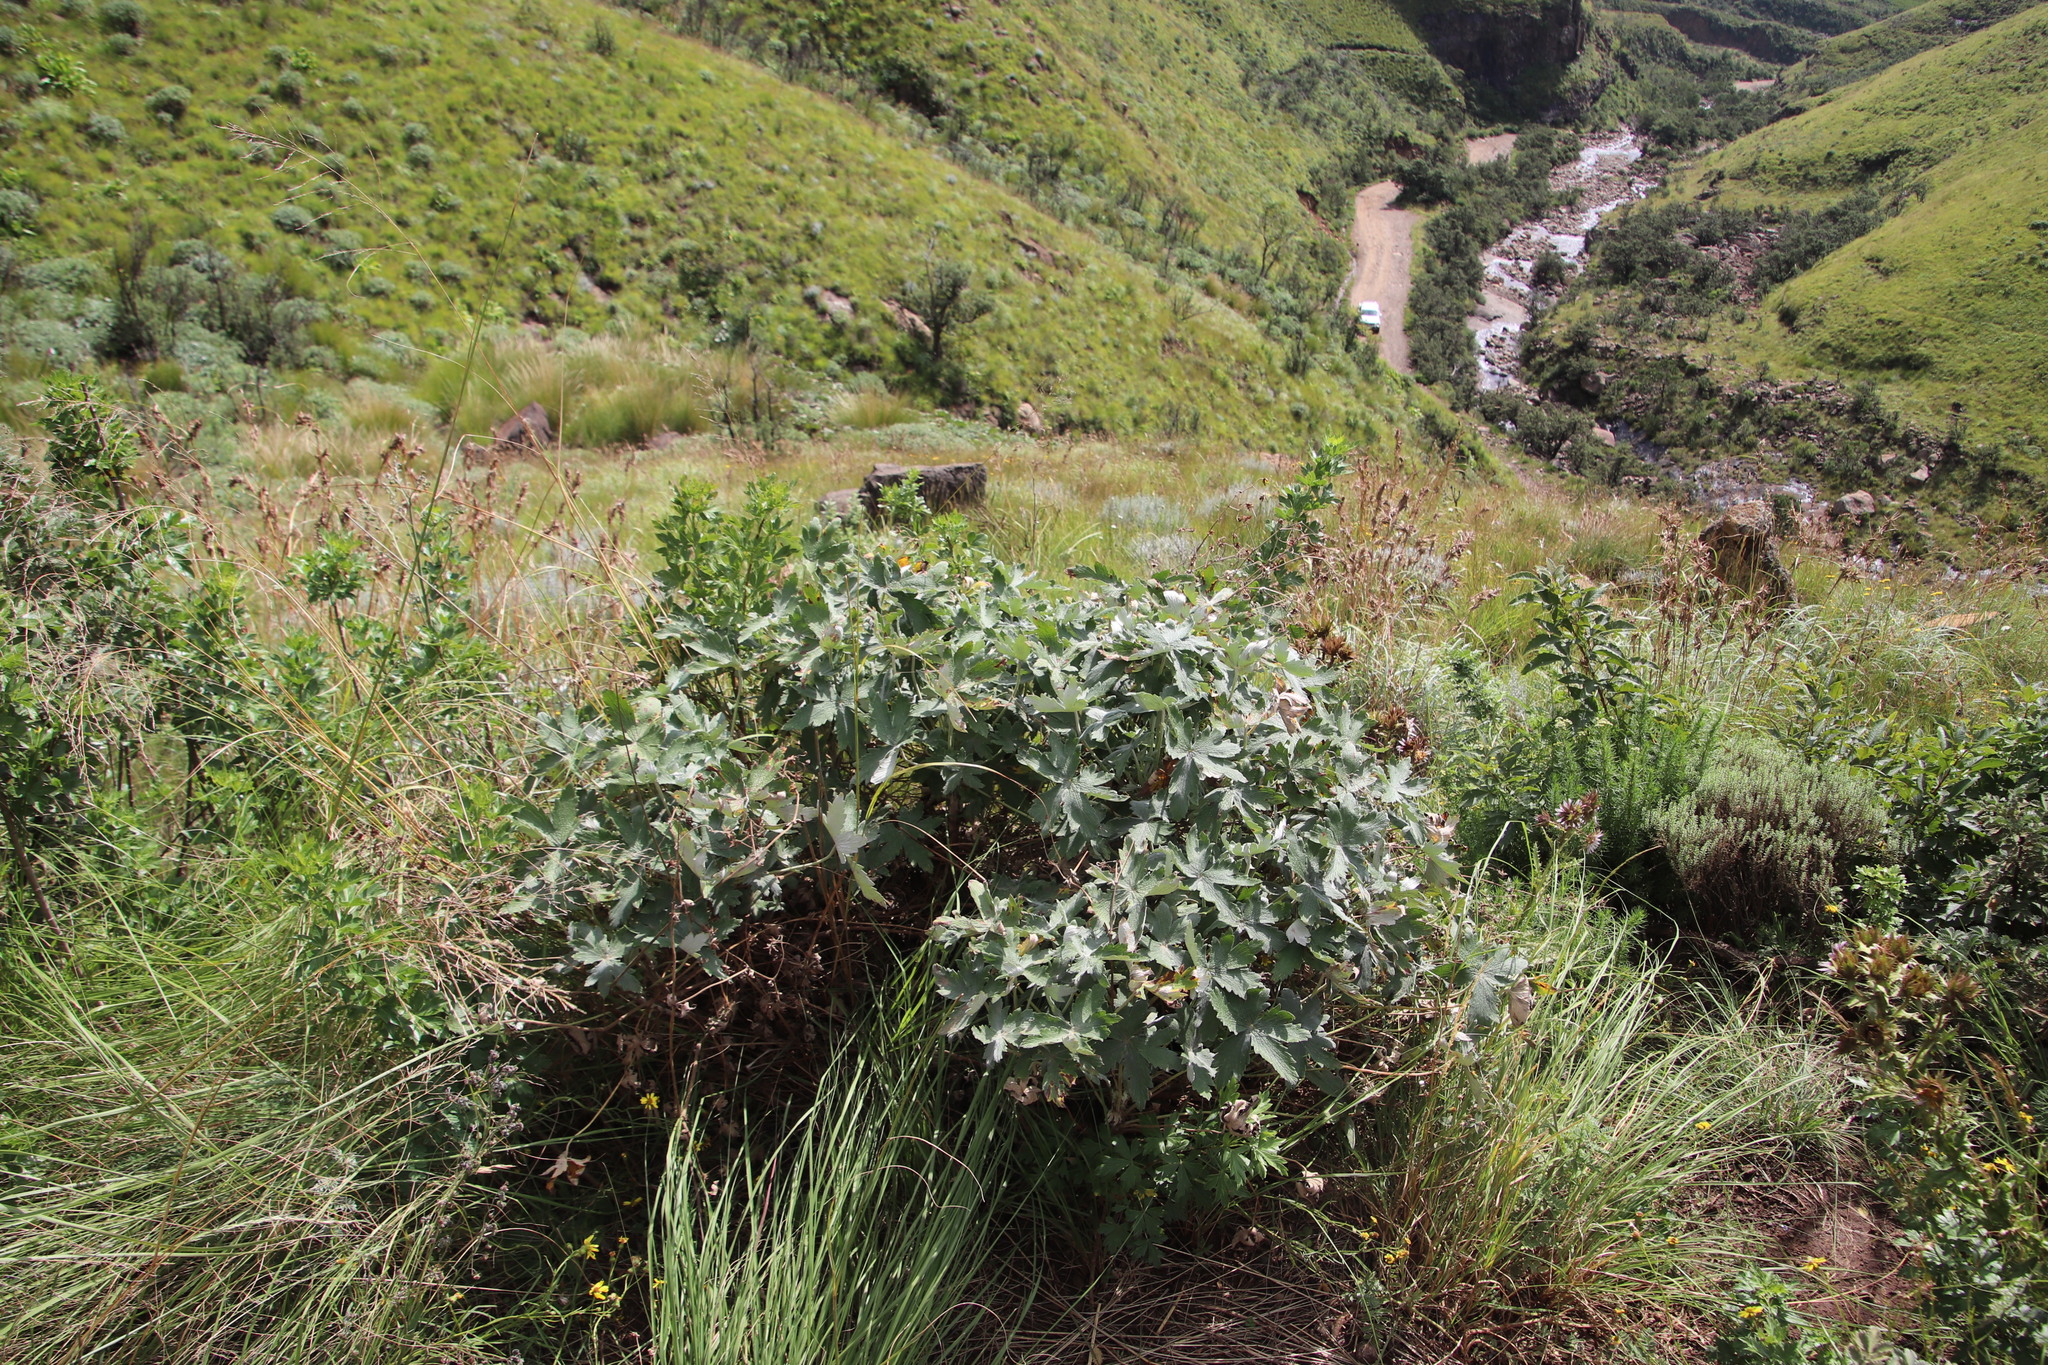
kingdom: Plantae
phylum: Tracheophyta
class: Magnoliopsida
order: Geraniales
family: Geraniaceae
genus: Geranium
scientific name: Geranium pulchrum
